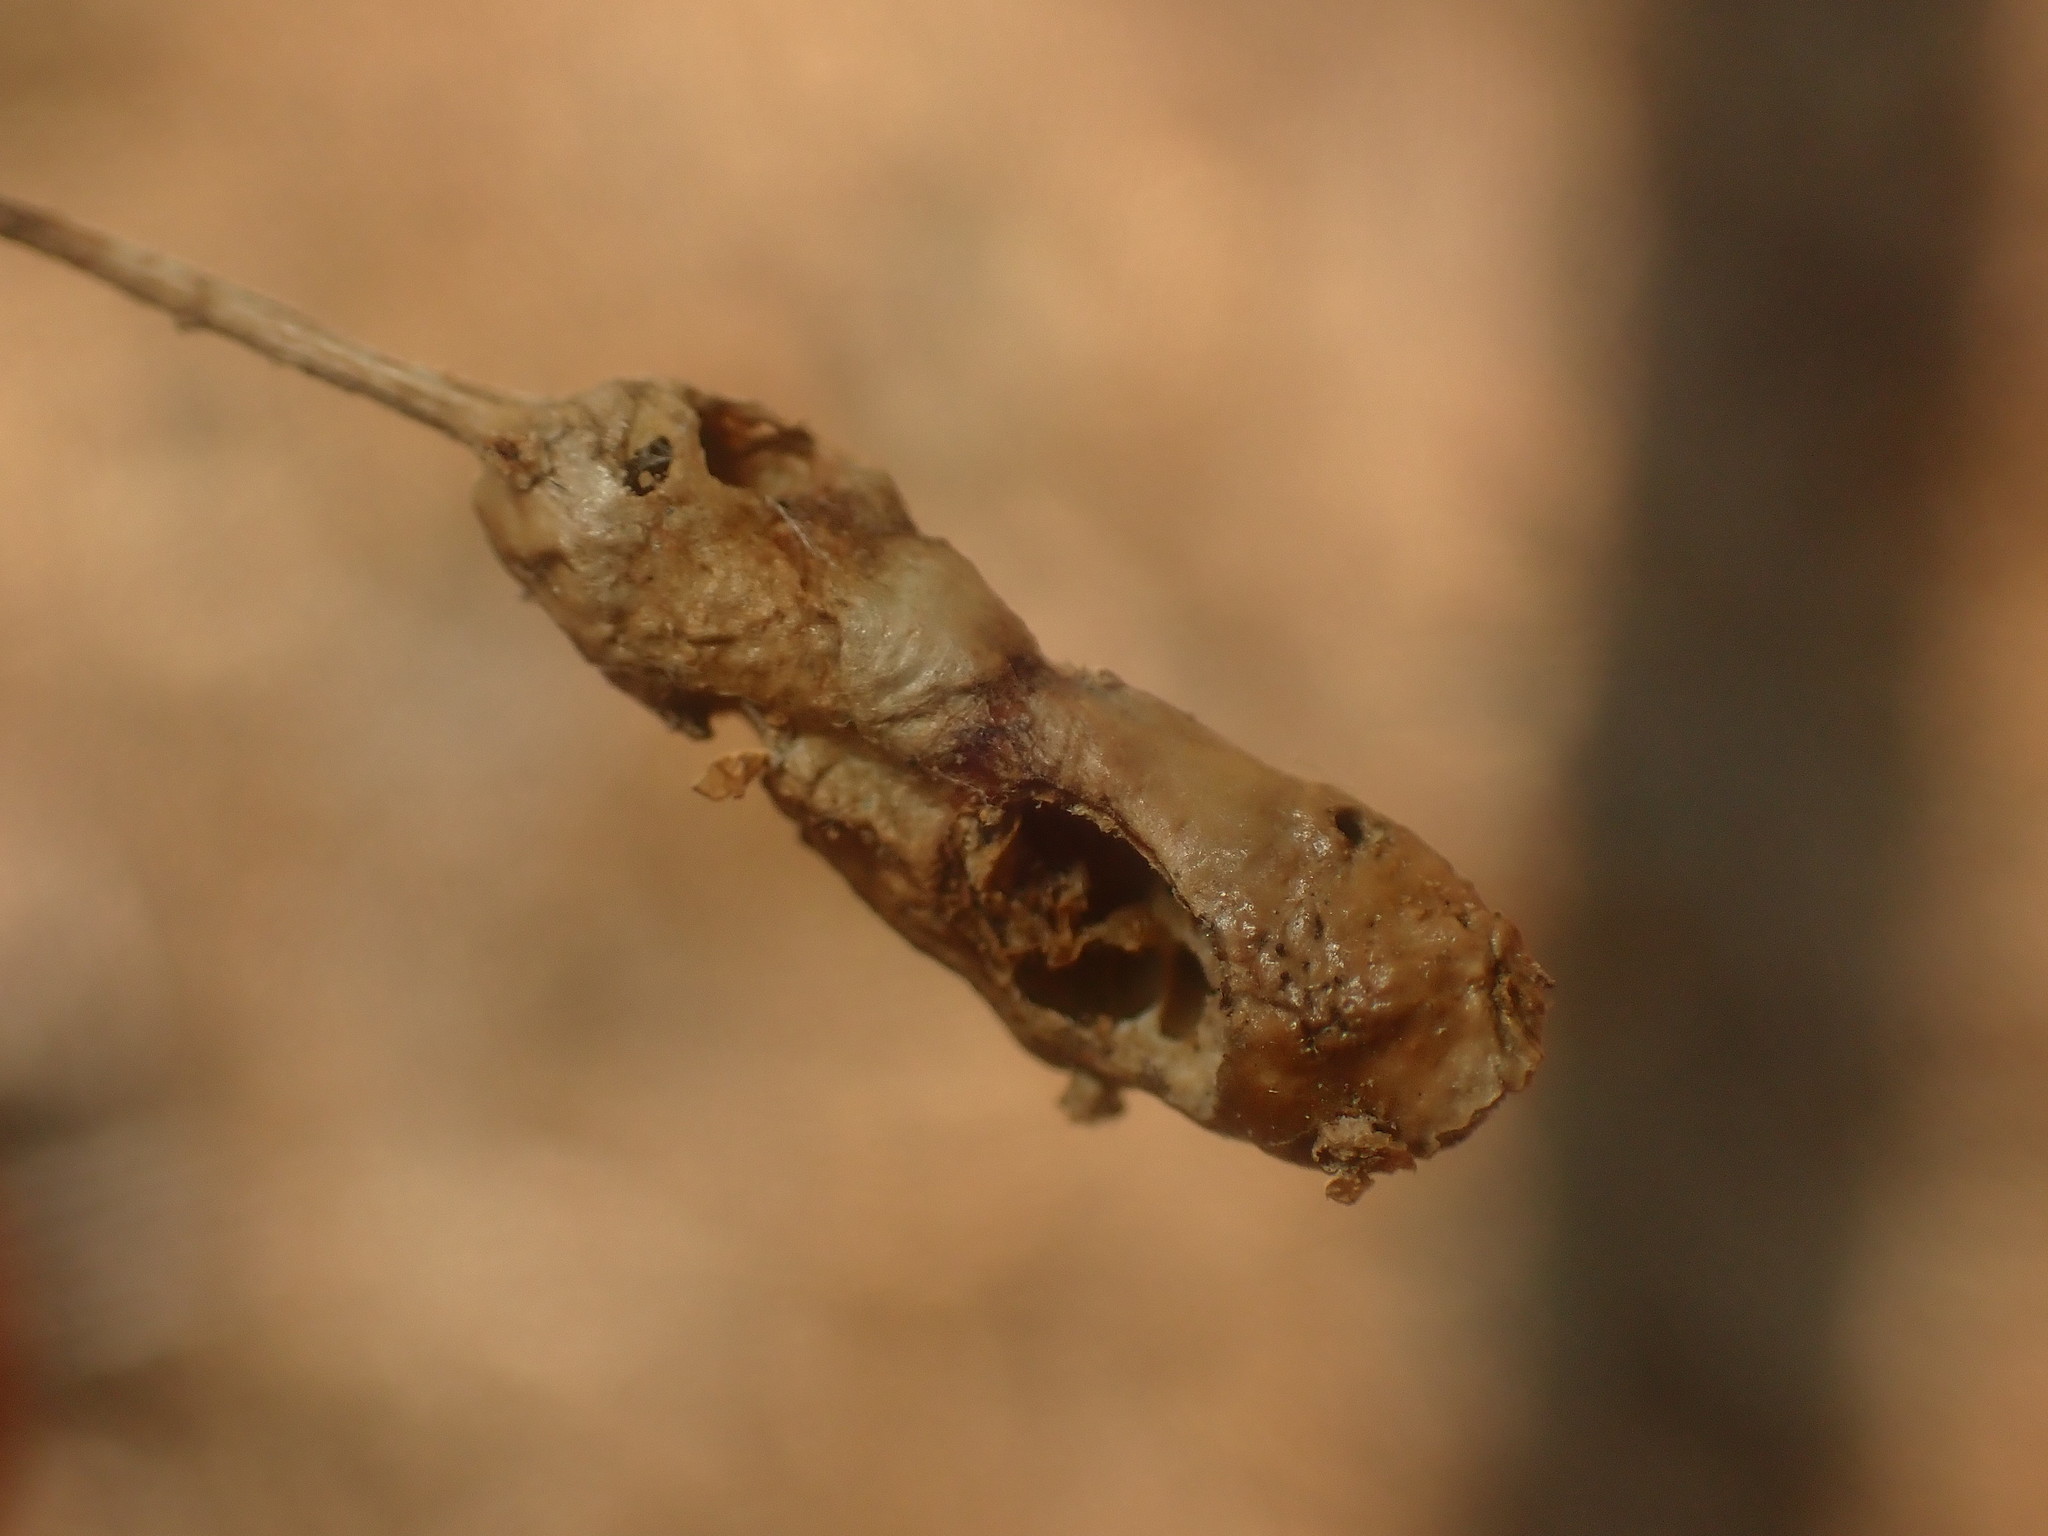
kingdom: Animalia
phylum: Arthropoda
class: Insecta
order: Hymenoptera
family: Cynipidae
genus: Callirhytis
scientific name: Callirhytis
